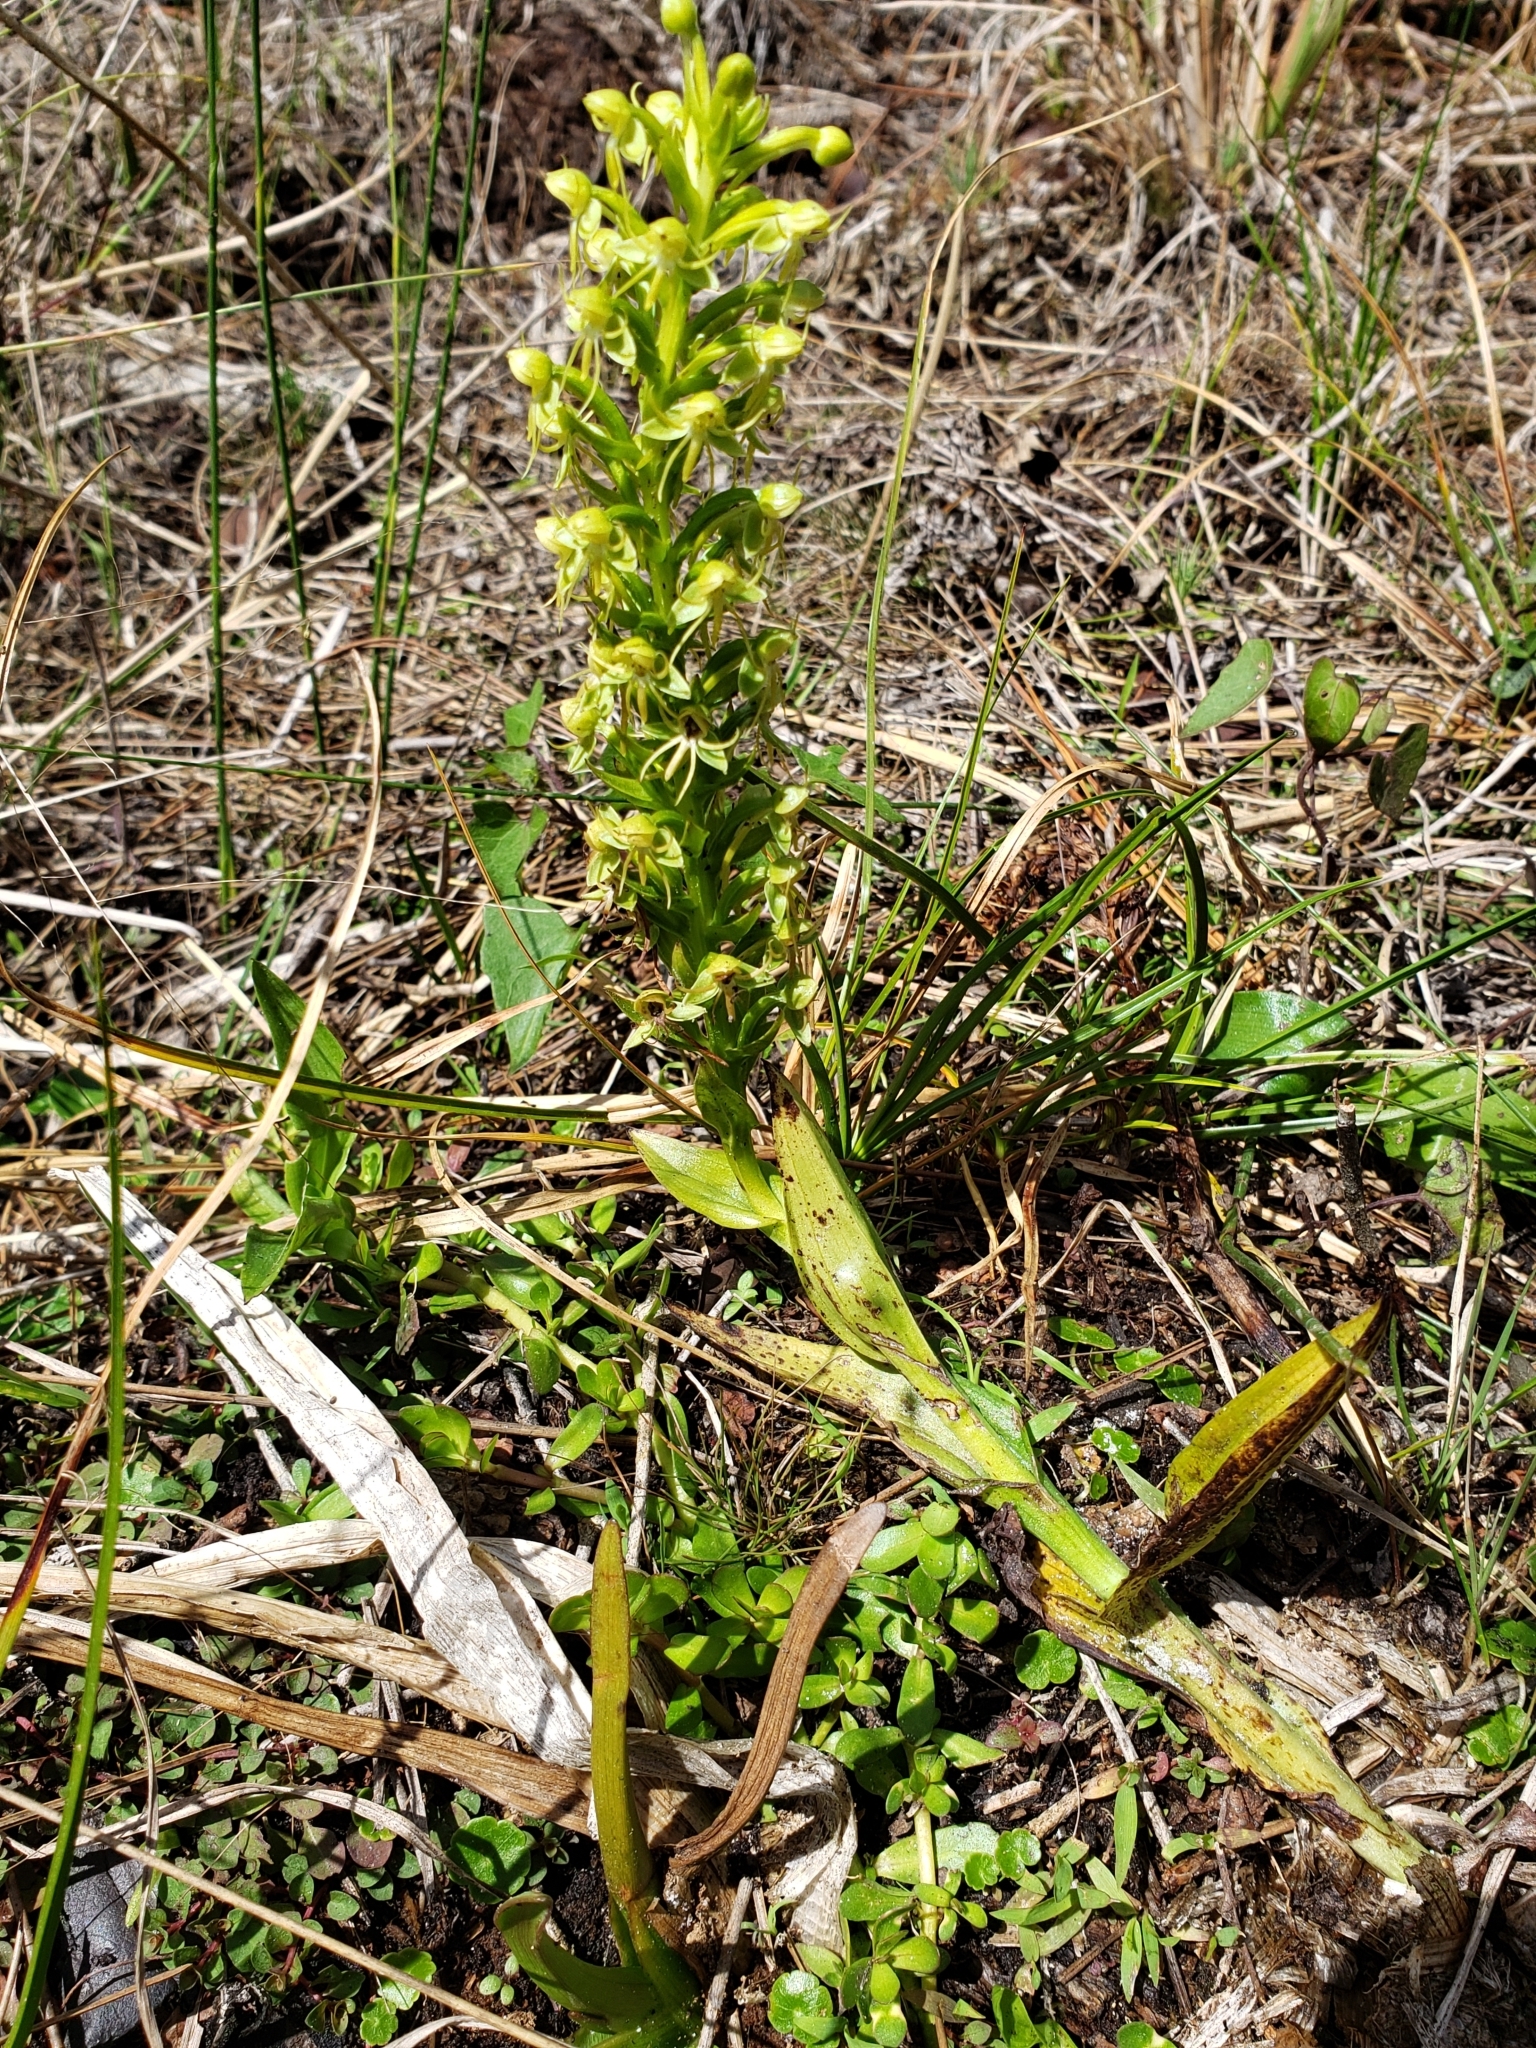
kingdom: Plantae
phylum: Tracheophyta
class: Liliopsida
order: Asparagales
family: Orchidaceae
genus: Habenaria
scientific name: Habenaria repens
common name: Water orchid
